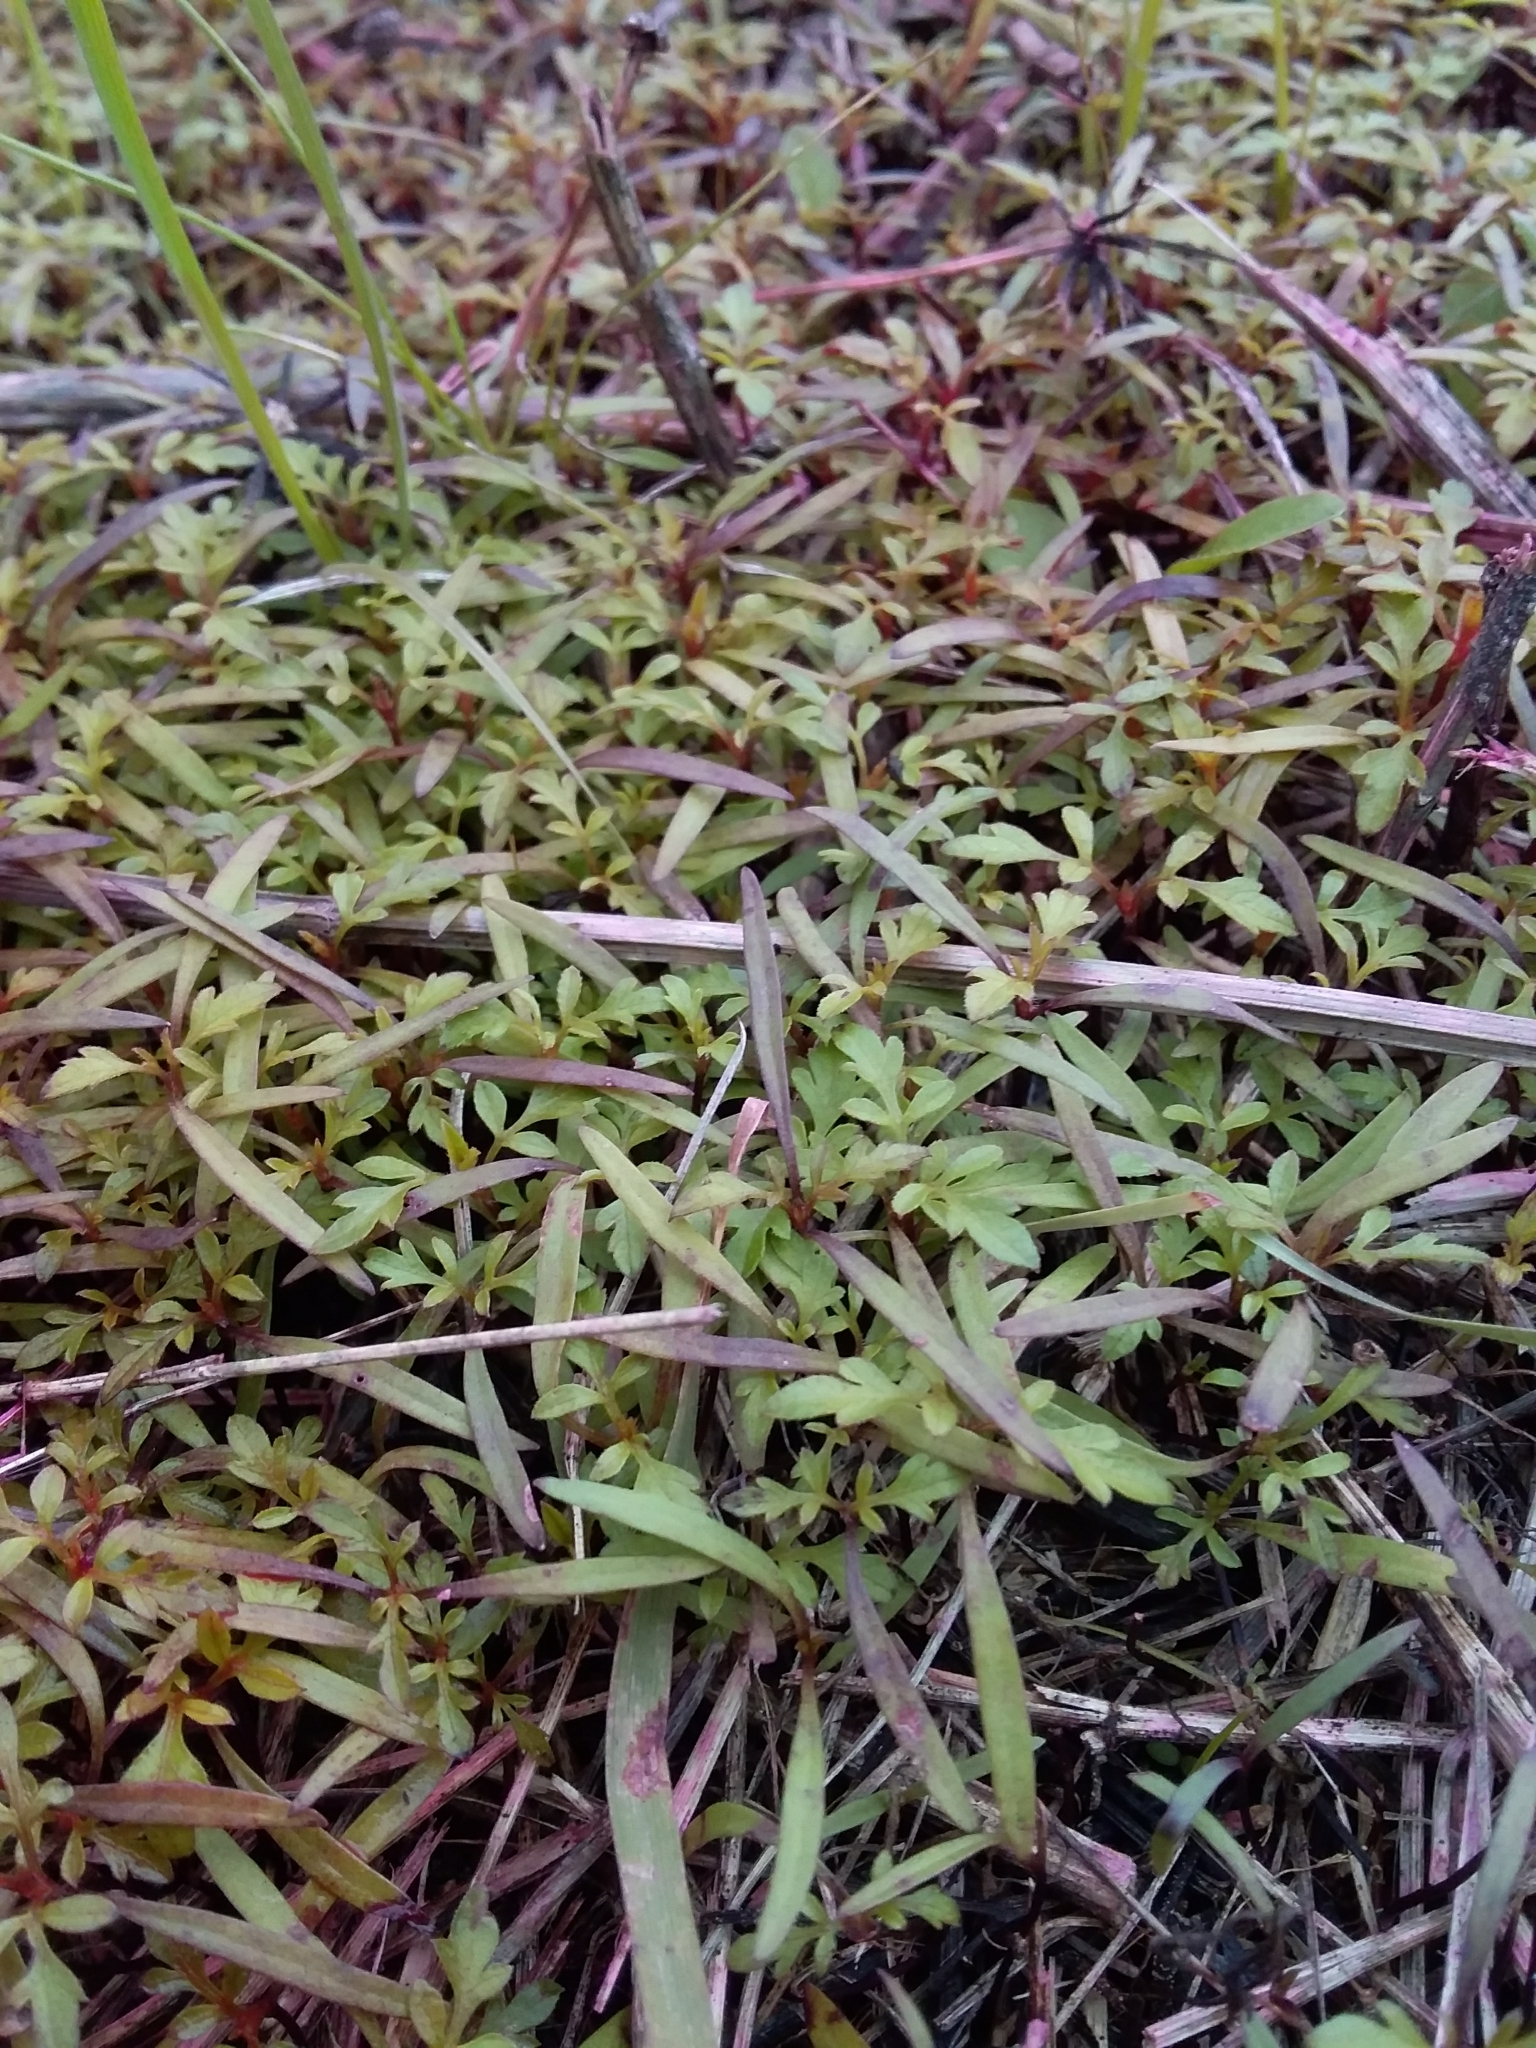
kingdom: Plantae
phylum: Tracheophyta
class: Magnoliopsida
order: Asterales
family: Asteraceae
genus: Bidens
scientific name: Bidens pilosa
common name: Black-jack
